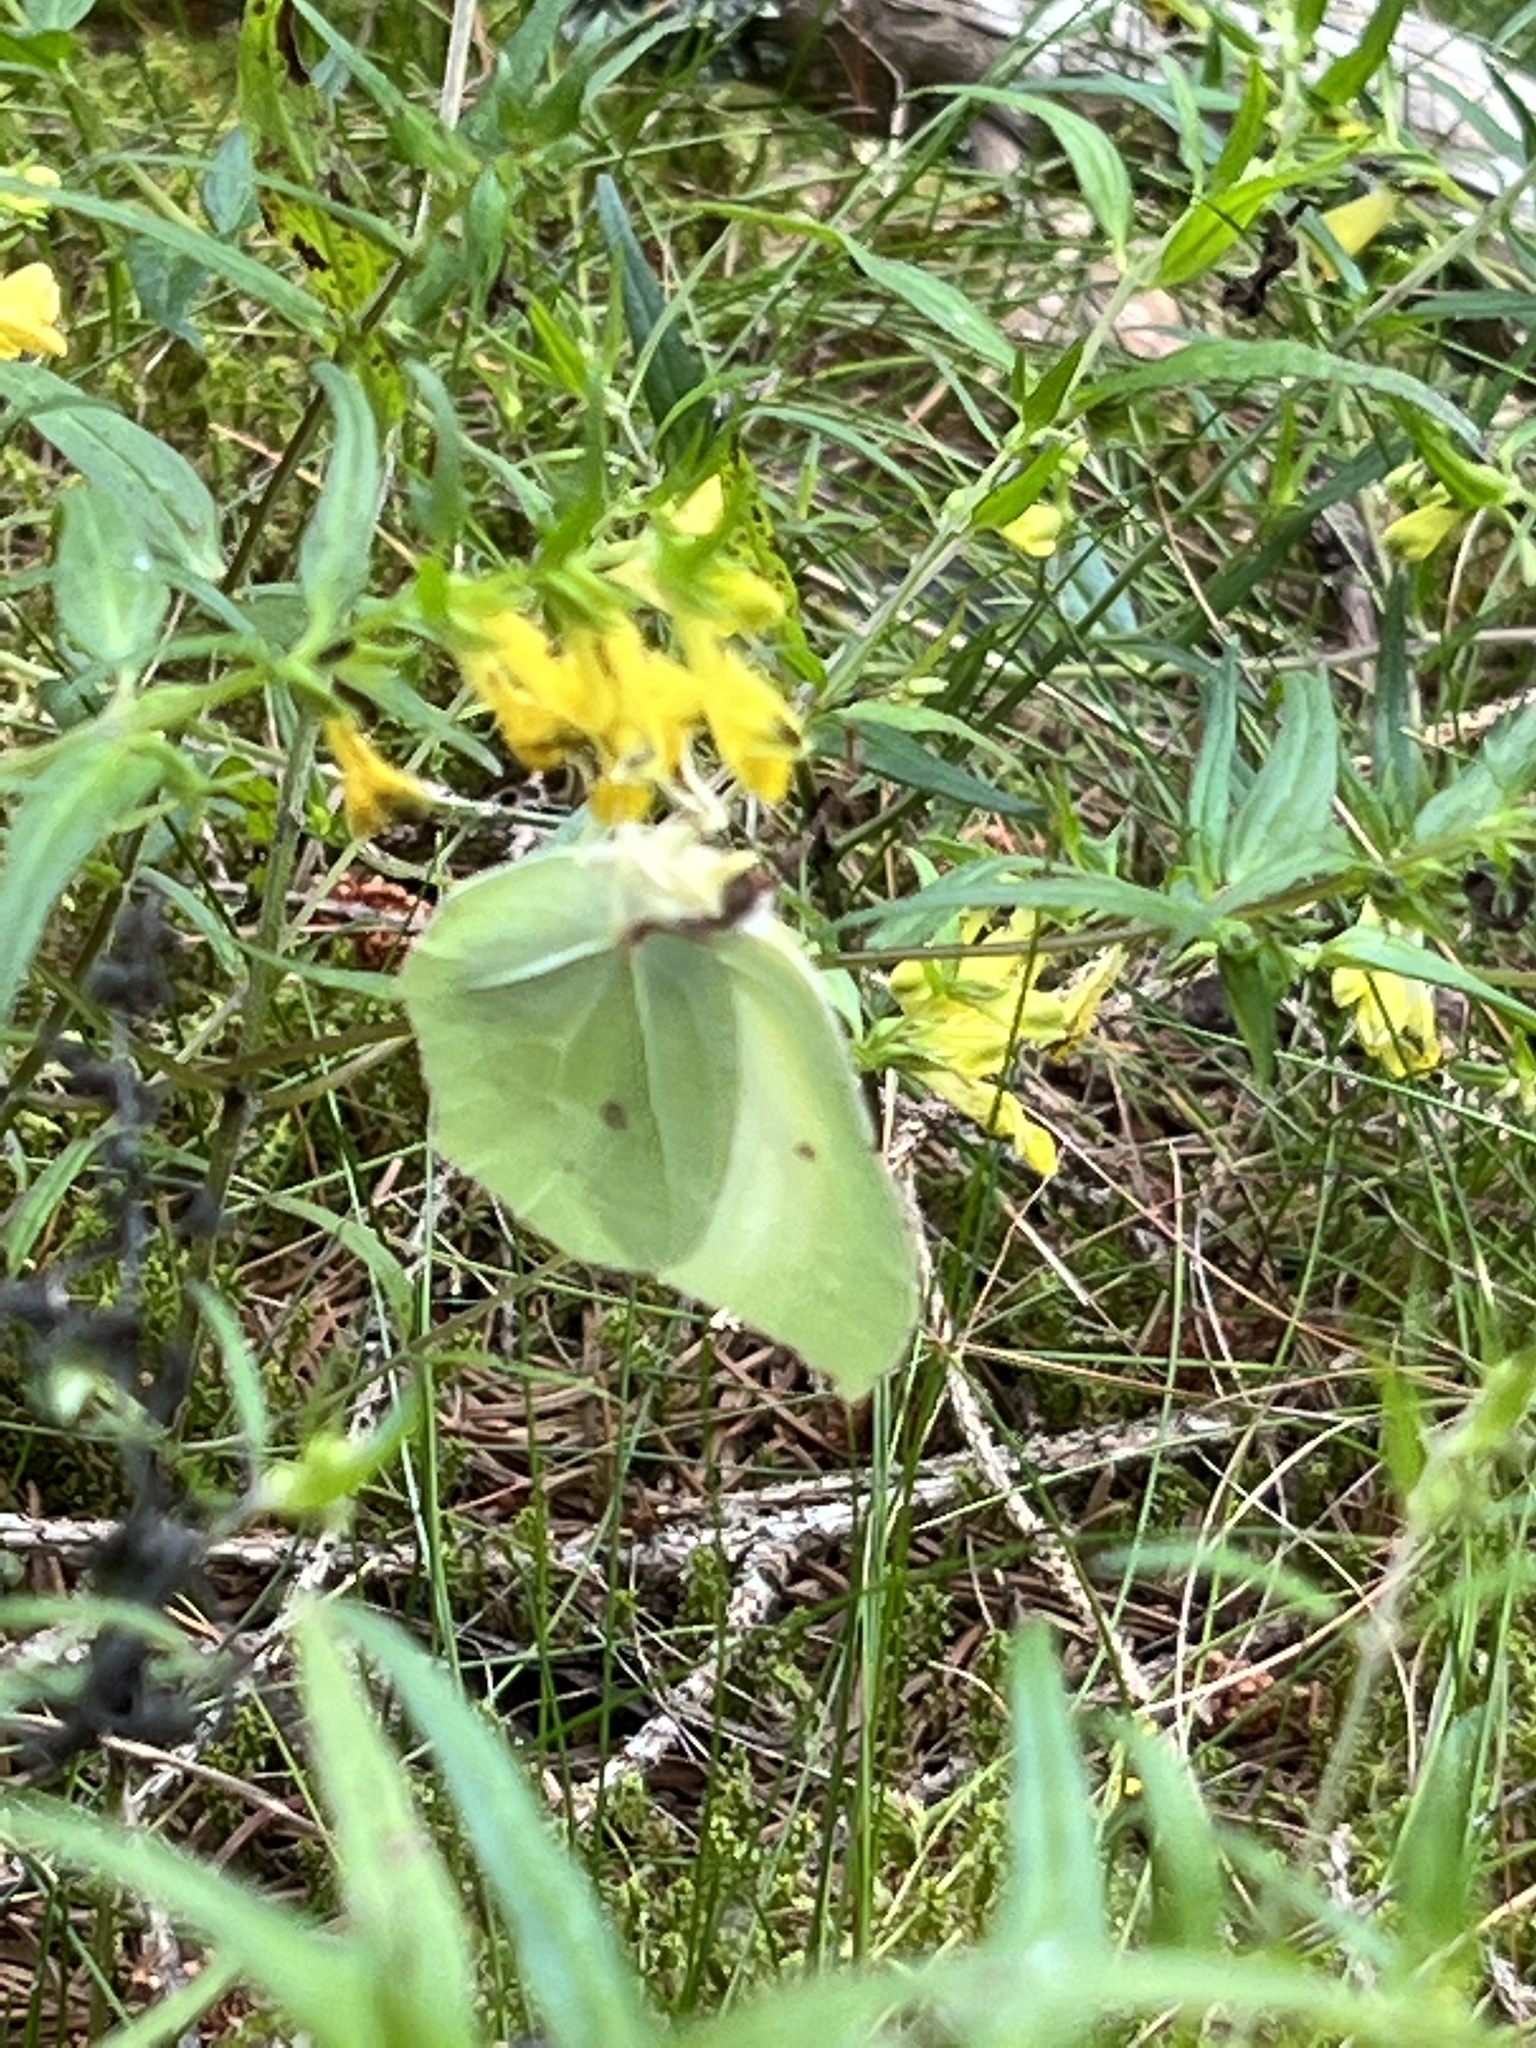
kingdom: Animalia
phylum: Arthropoda
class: Insecta
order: Lepidoptera
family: Pieridae
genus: Gonepteryx
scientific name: Gonepteryx rhamni
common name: Brimstone
